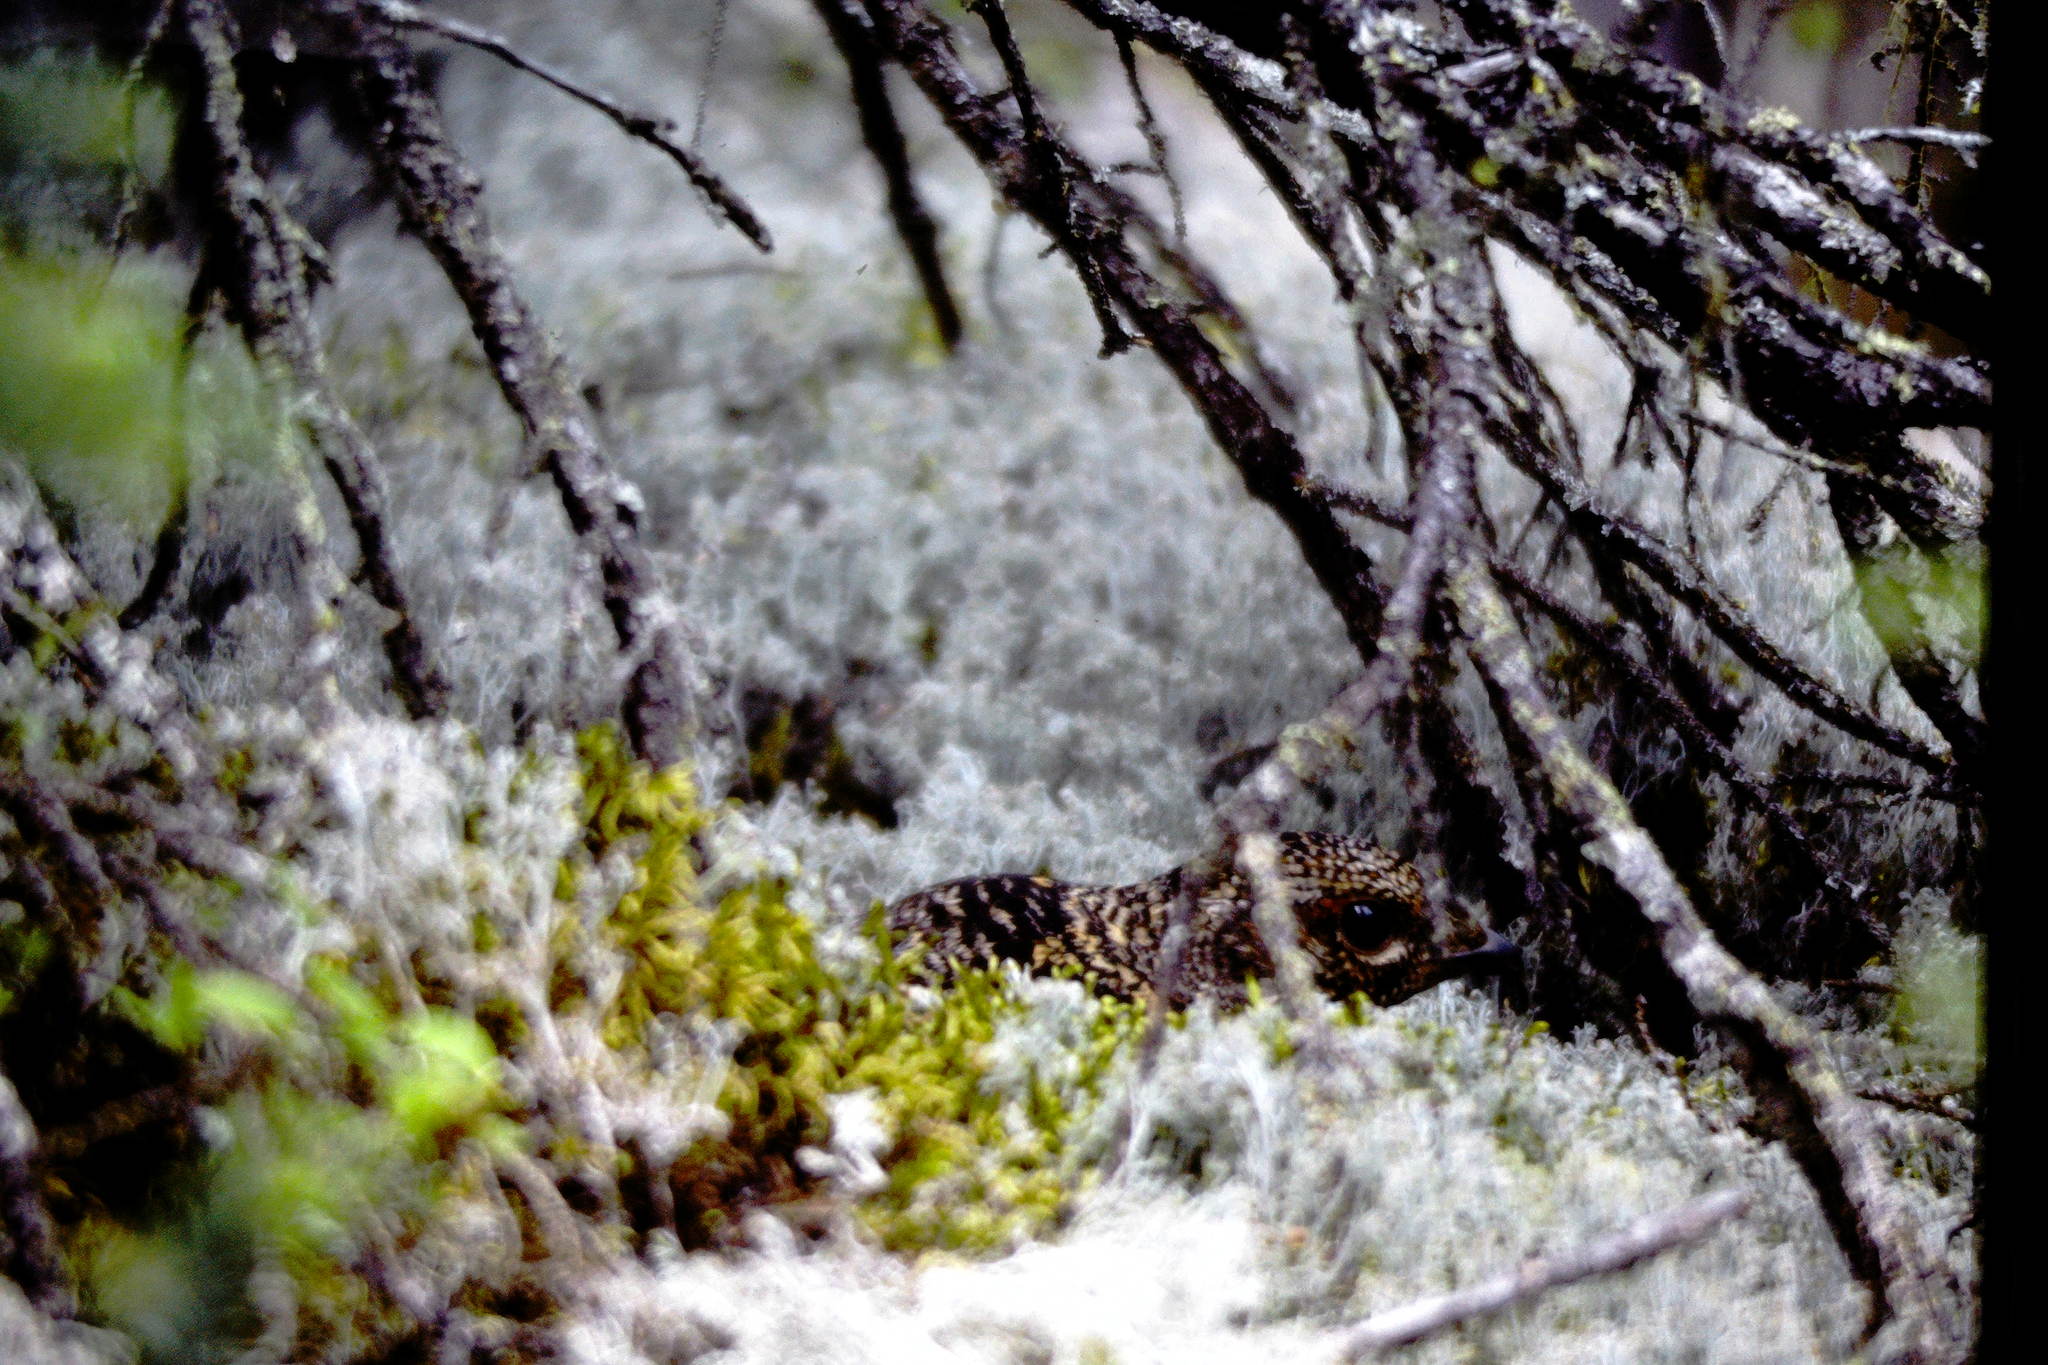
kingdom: Animalia
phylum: Chordata
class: Aves
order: Galliformes
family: Phasianidae
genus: Canachites
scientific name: Canachites canadensis
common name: Spruce grouse
